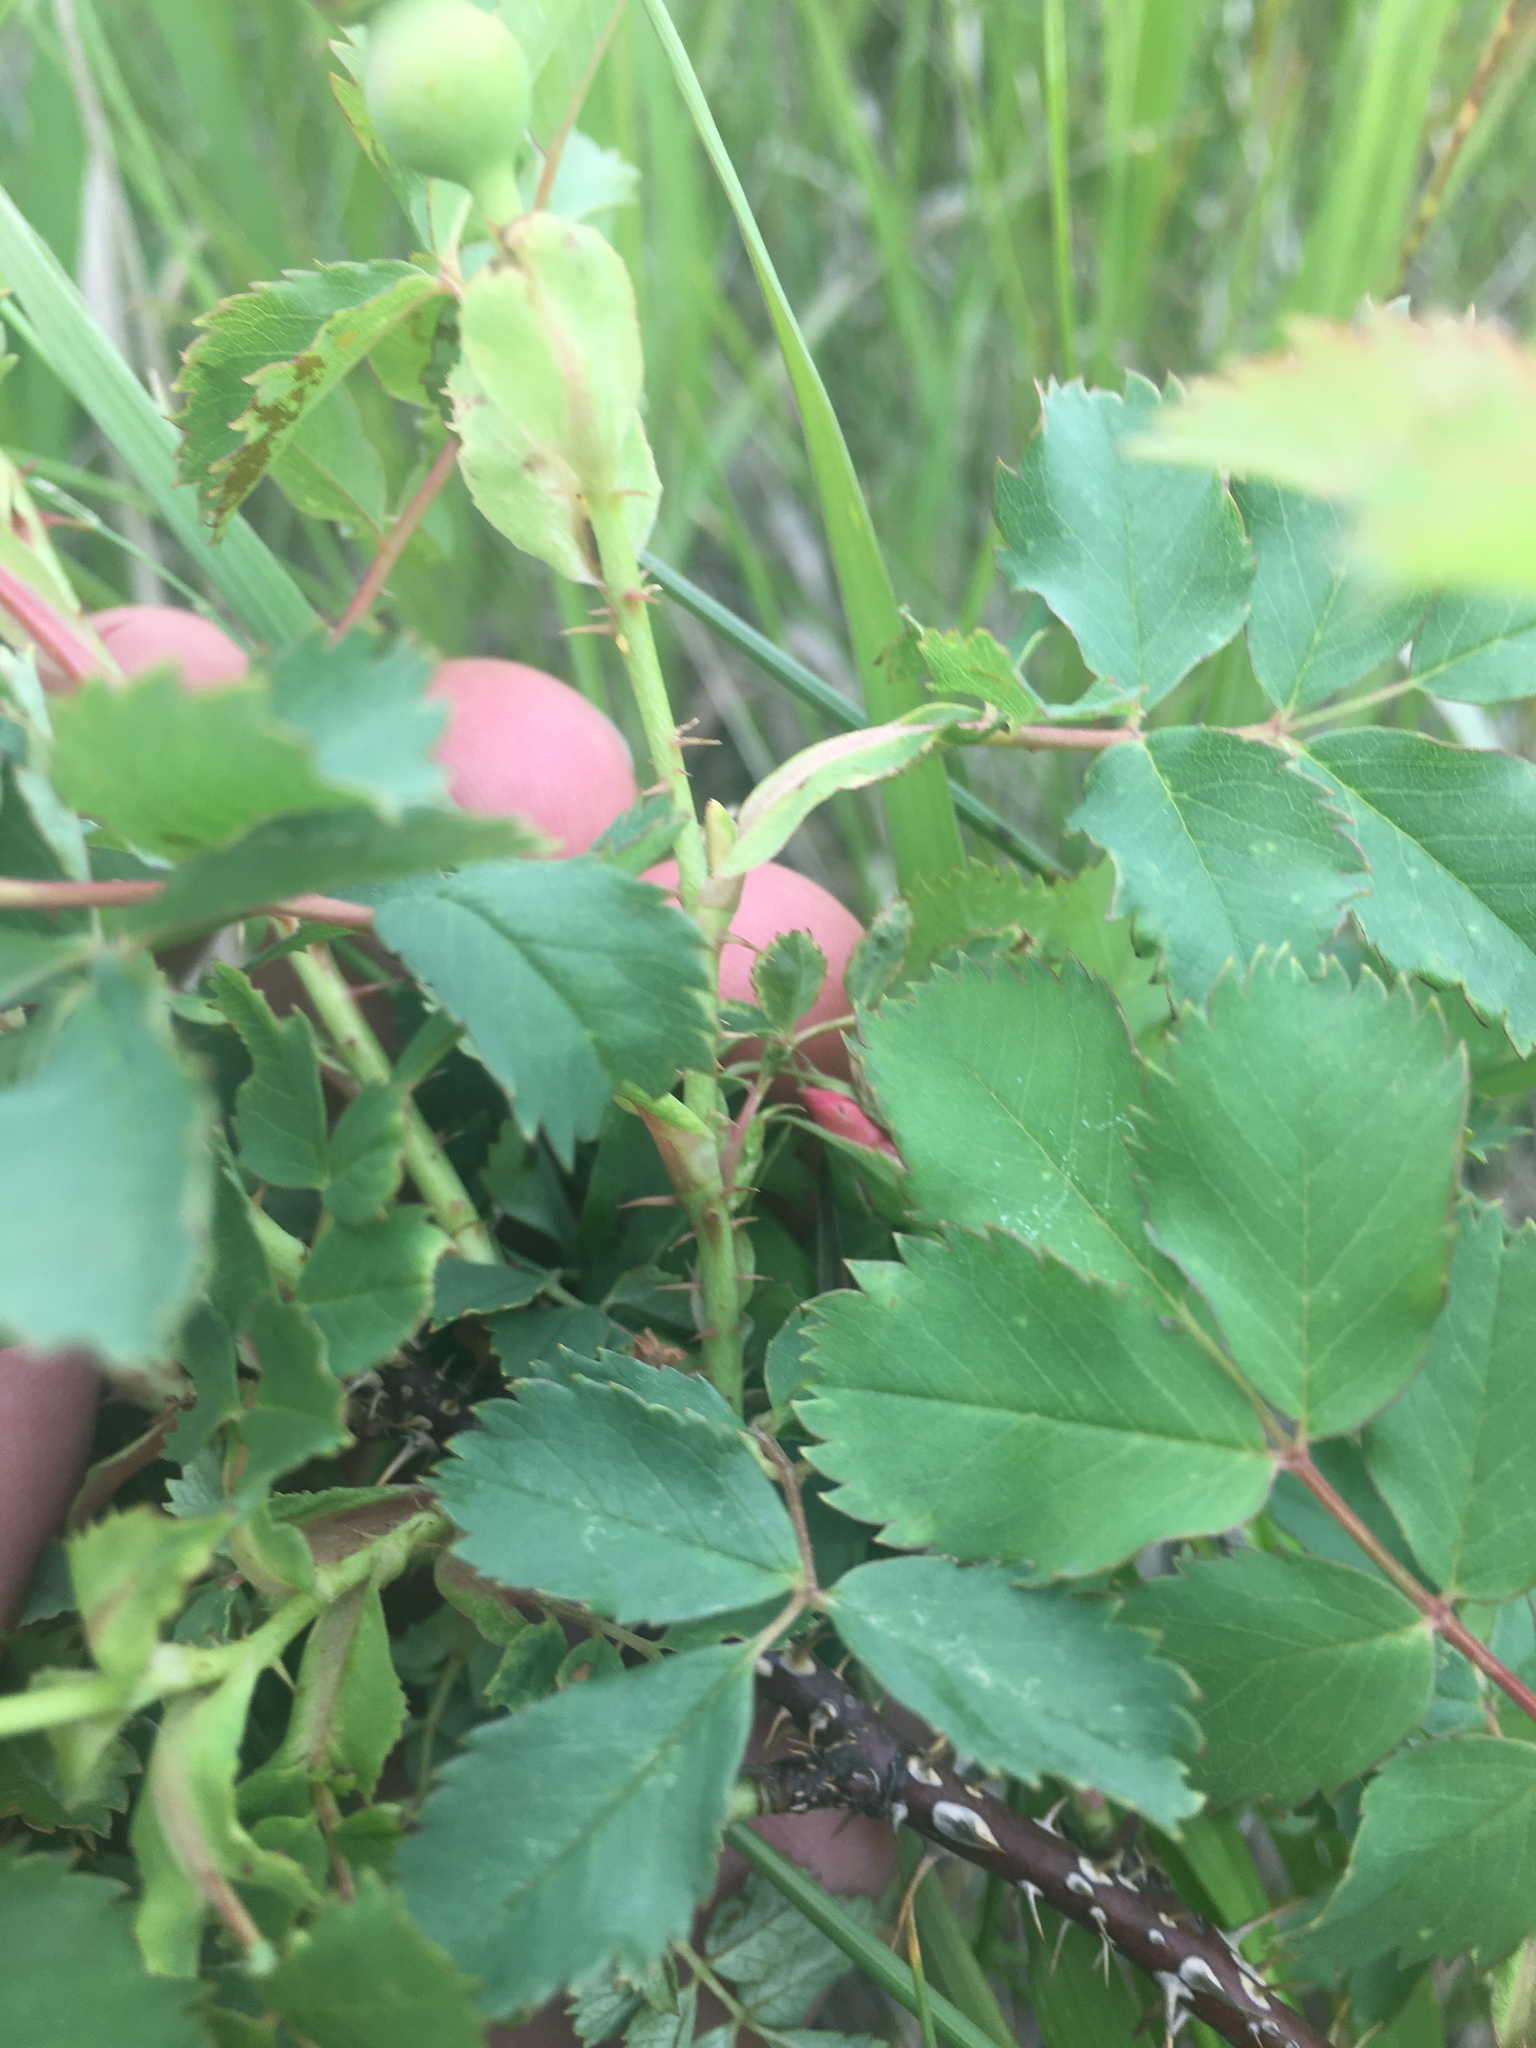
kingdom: Plantae
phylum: Tracheophyta
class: Magnoliopsida
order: Rosales
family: Rosaceae
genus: Rosa
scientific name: Rosa woodsii
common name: Woods's rose
